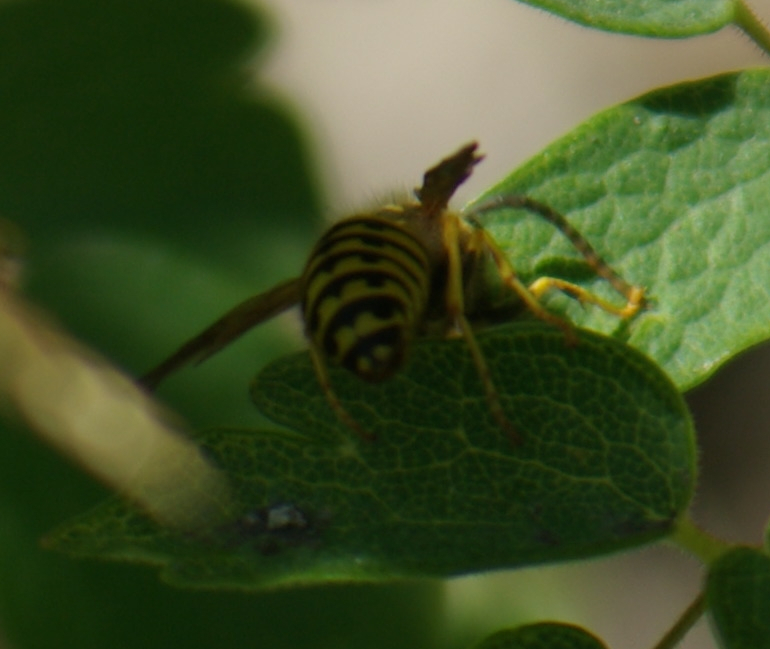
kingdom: Animalia
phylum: Arthropoda
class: Insecta
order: Hymenoptera
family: Vespidae
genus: Dolichovespula
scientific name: Dolichovespula arenaria
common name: Aerial yellowjacket
